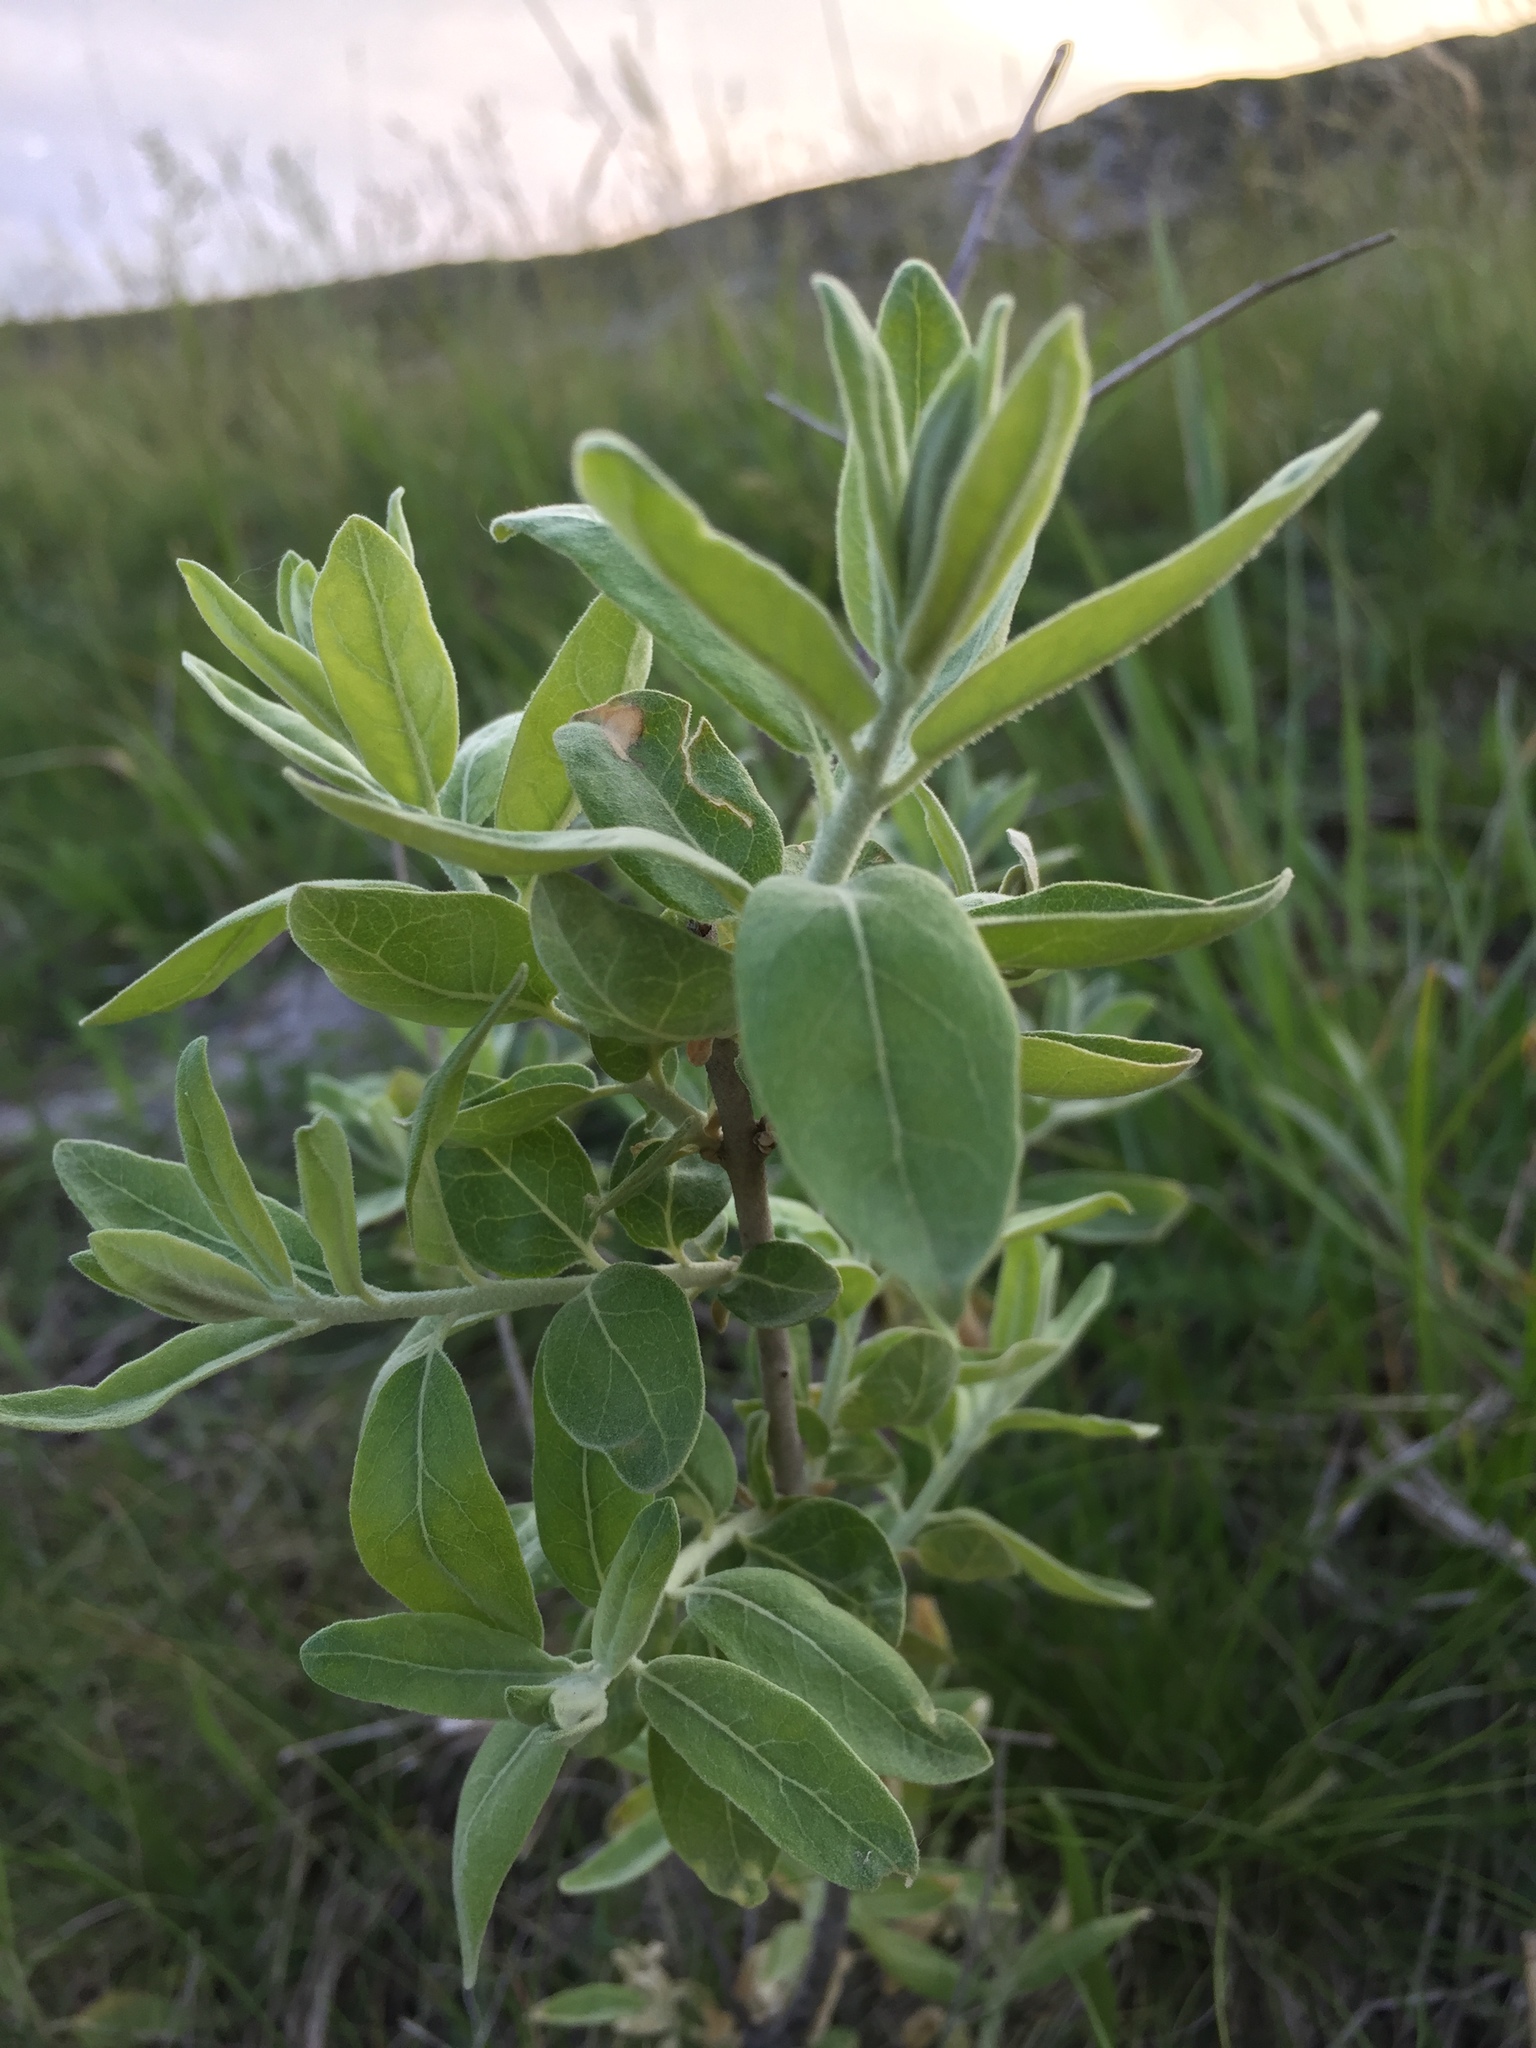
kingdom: Plantae
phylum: Tracheophyta
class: Magnoliopsida
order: Rosales
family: Elaeagnaceae
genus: Elaeagnus
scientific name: Elaeagnus angustifolia
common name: Russian olive
